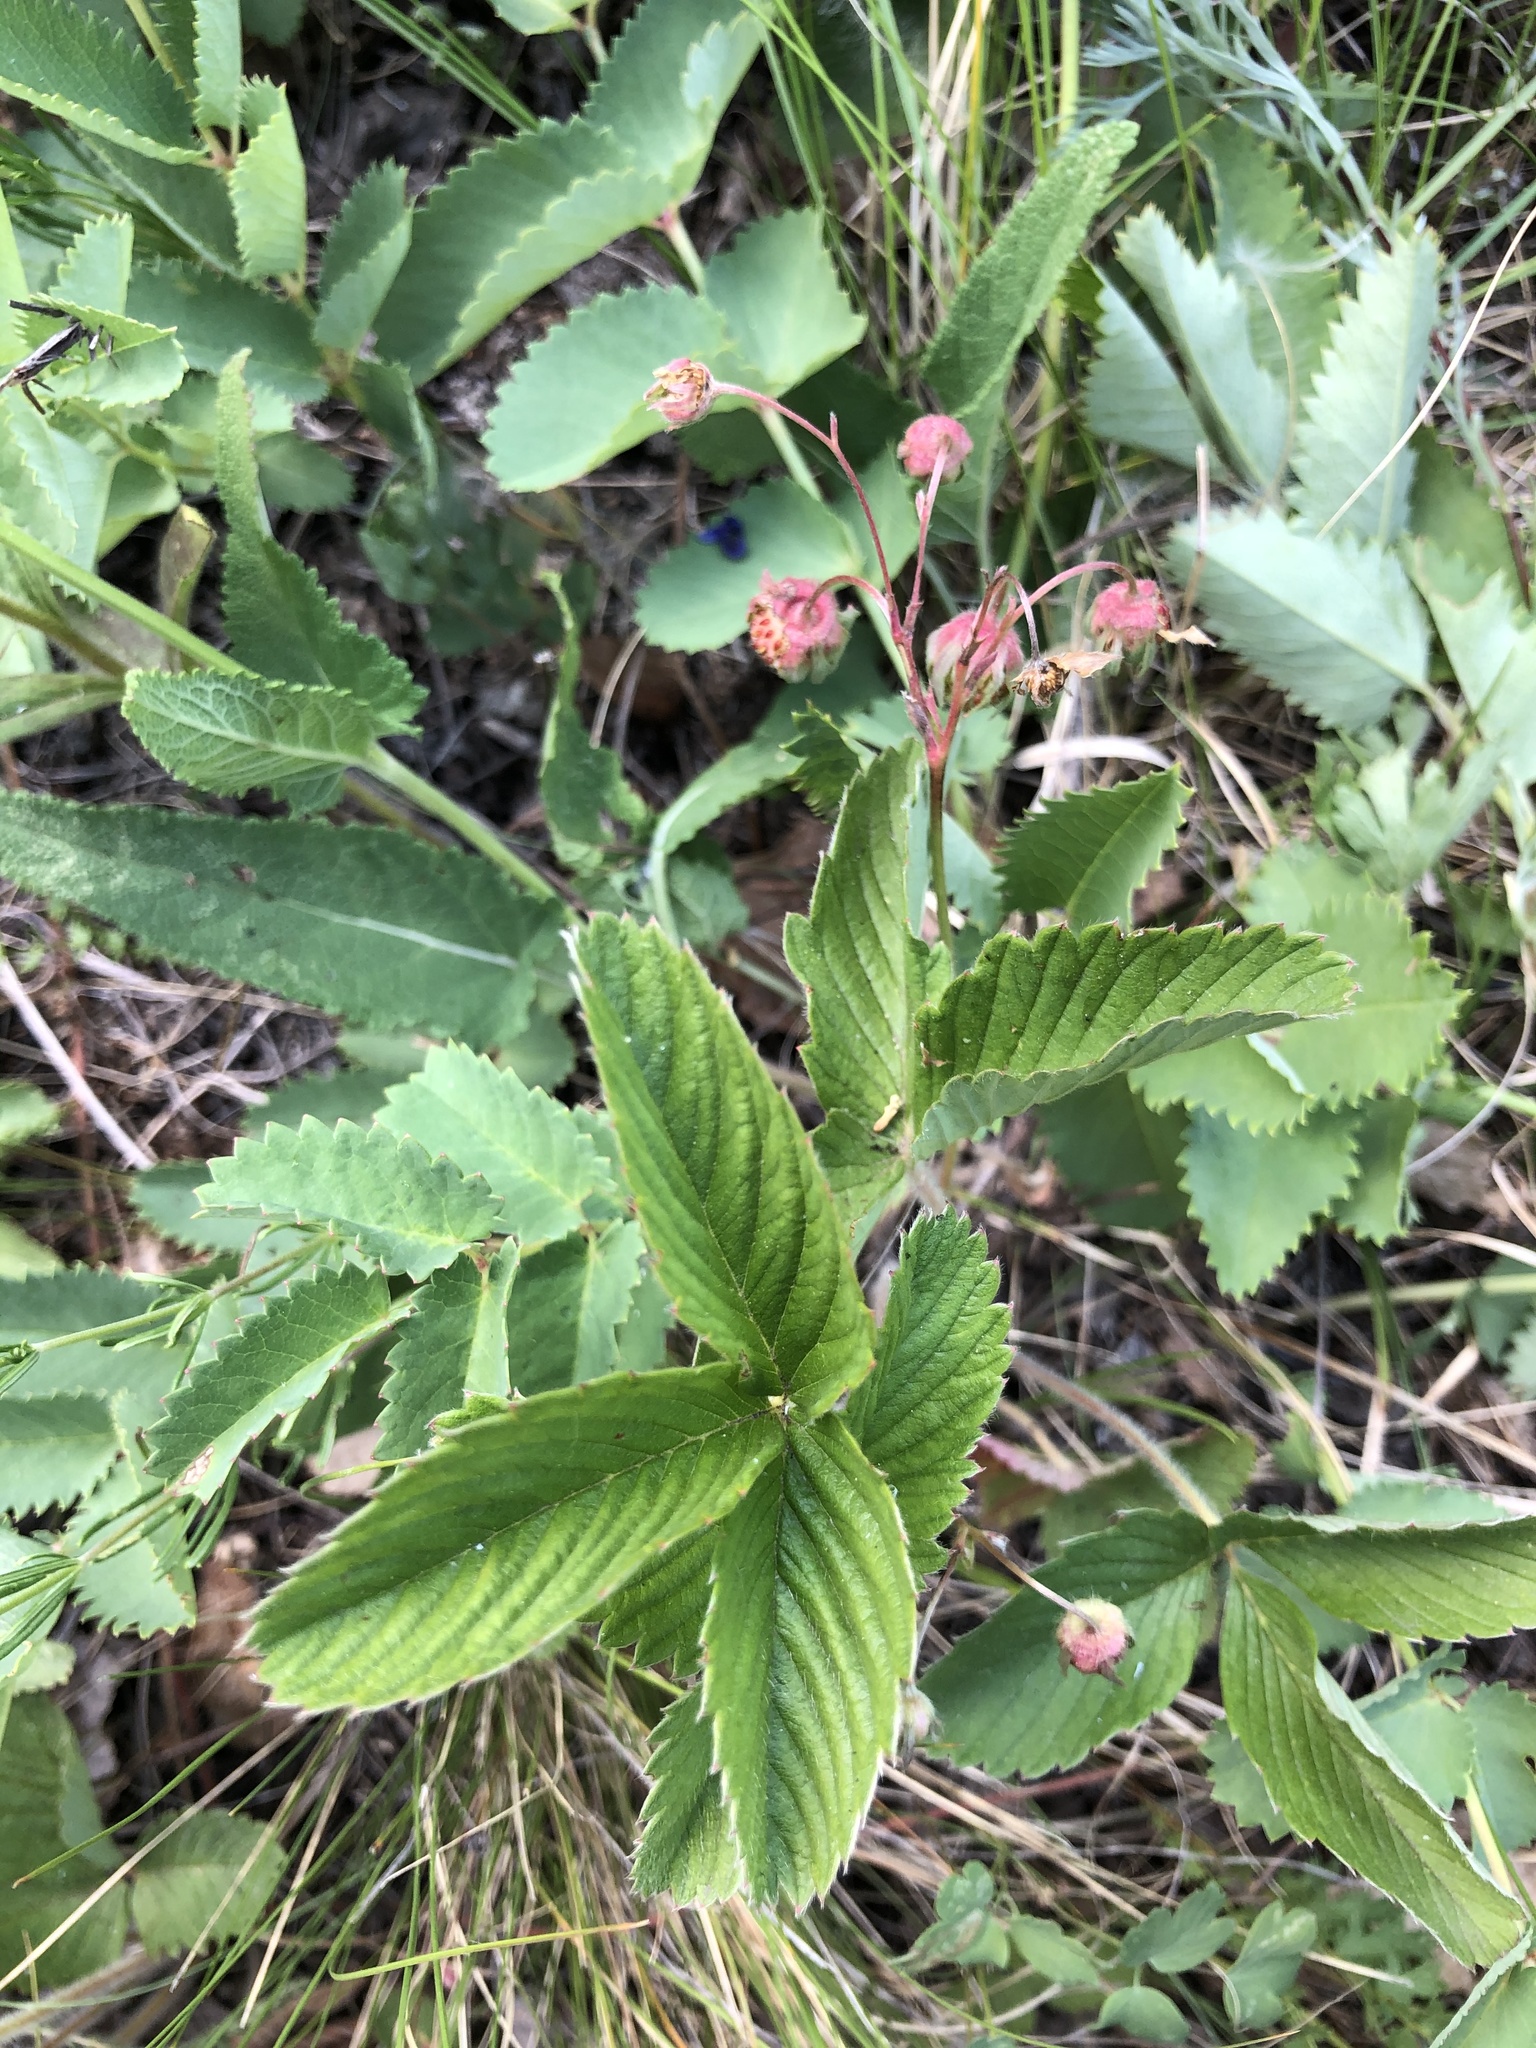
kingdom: Plantae
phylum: Tracheophyta
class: Magnoliopsida
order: Rosales
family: Rosaceae
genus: Fragaria
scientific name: Fragaria viridis
